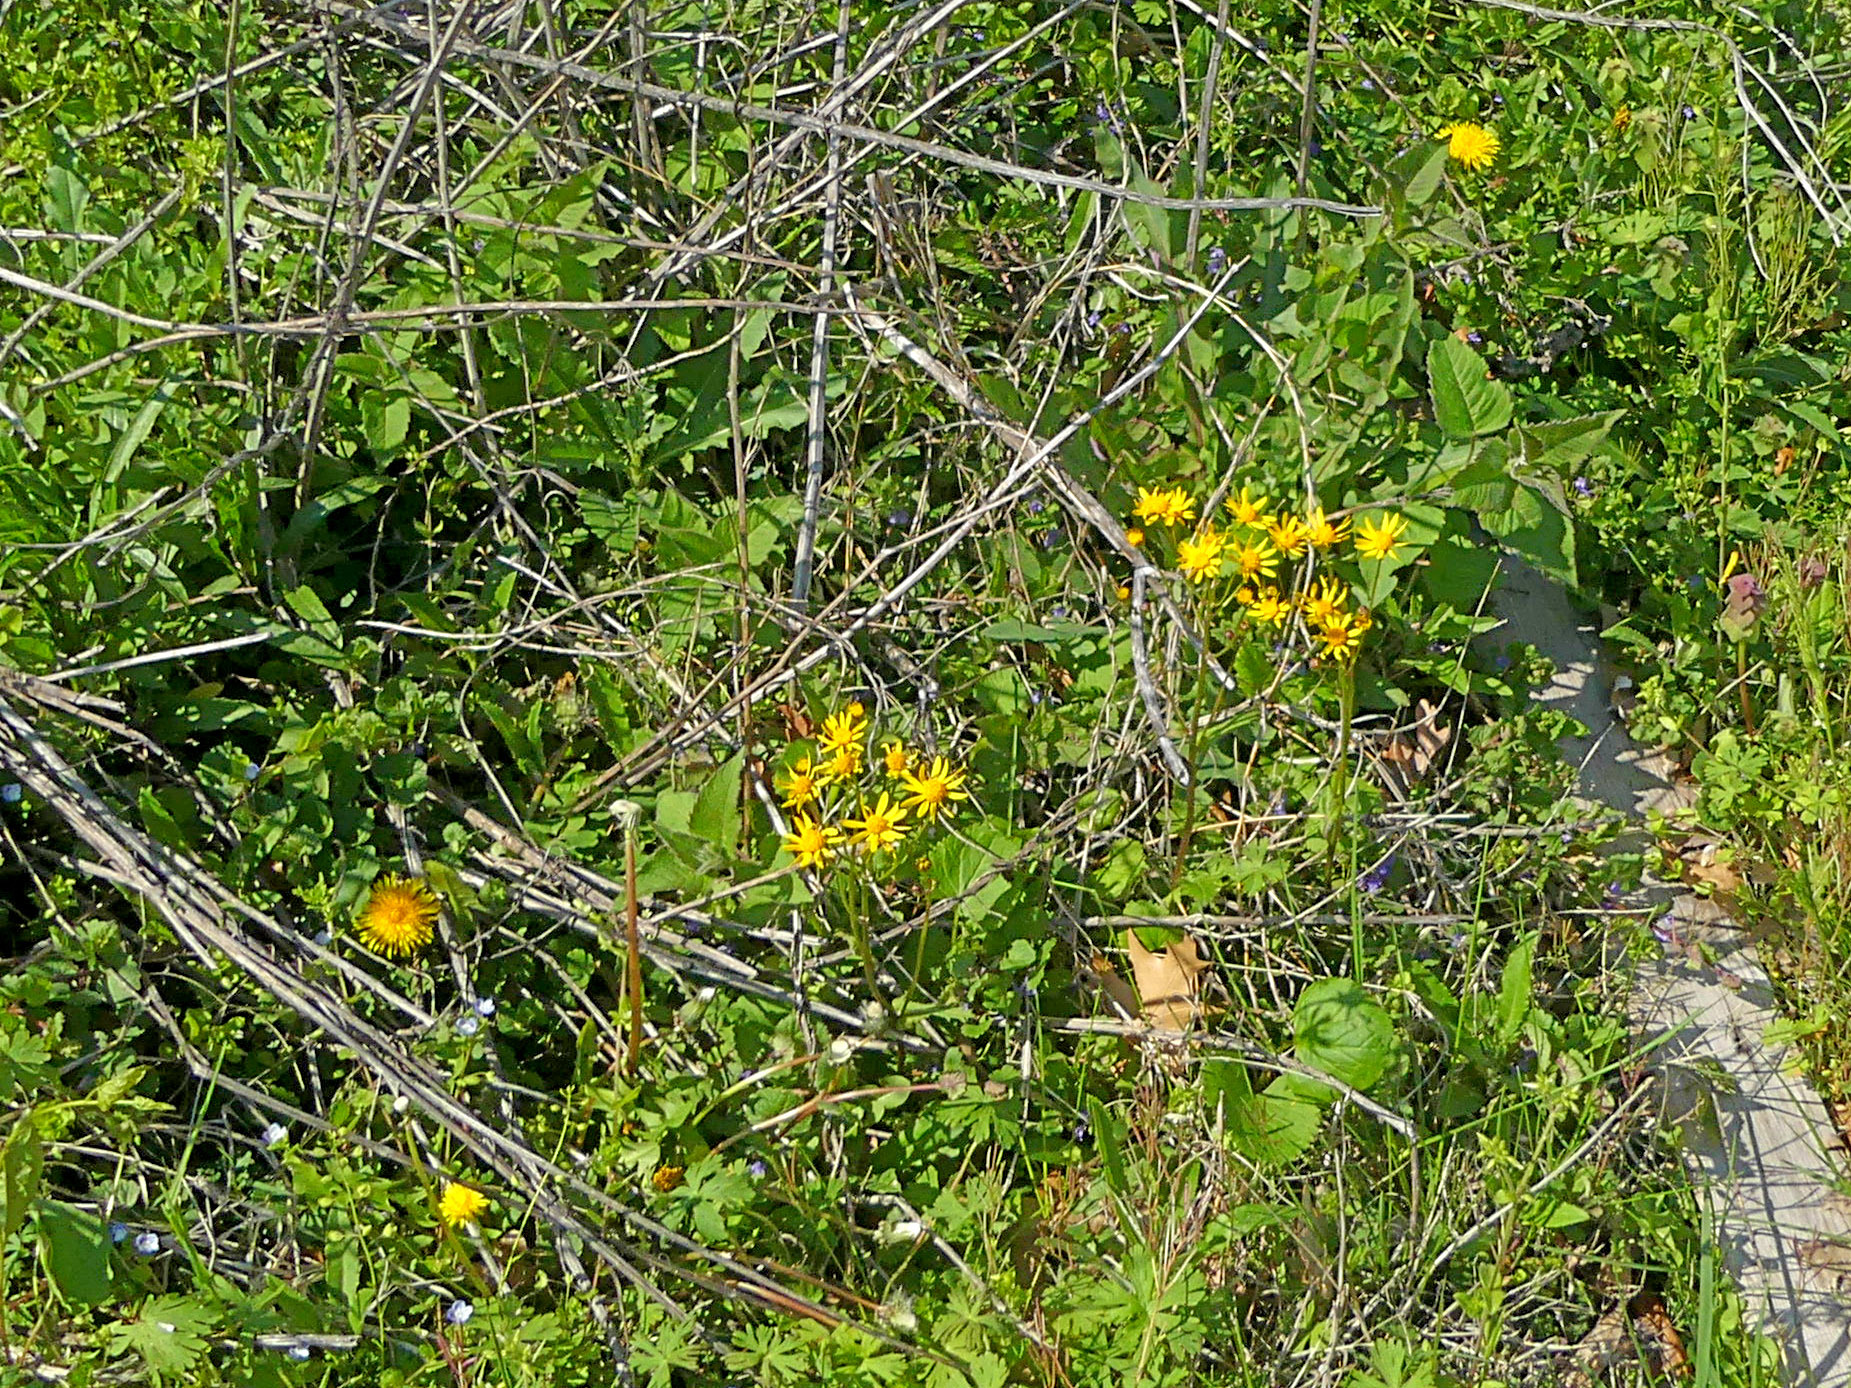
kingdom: Plantae
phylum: Tracheophyta
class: Magnoliopsida
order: Asterales
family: Asteraceae
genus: Packera
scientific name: Packera aurea
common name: Golden groundsel
